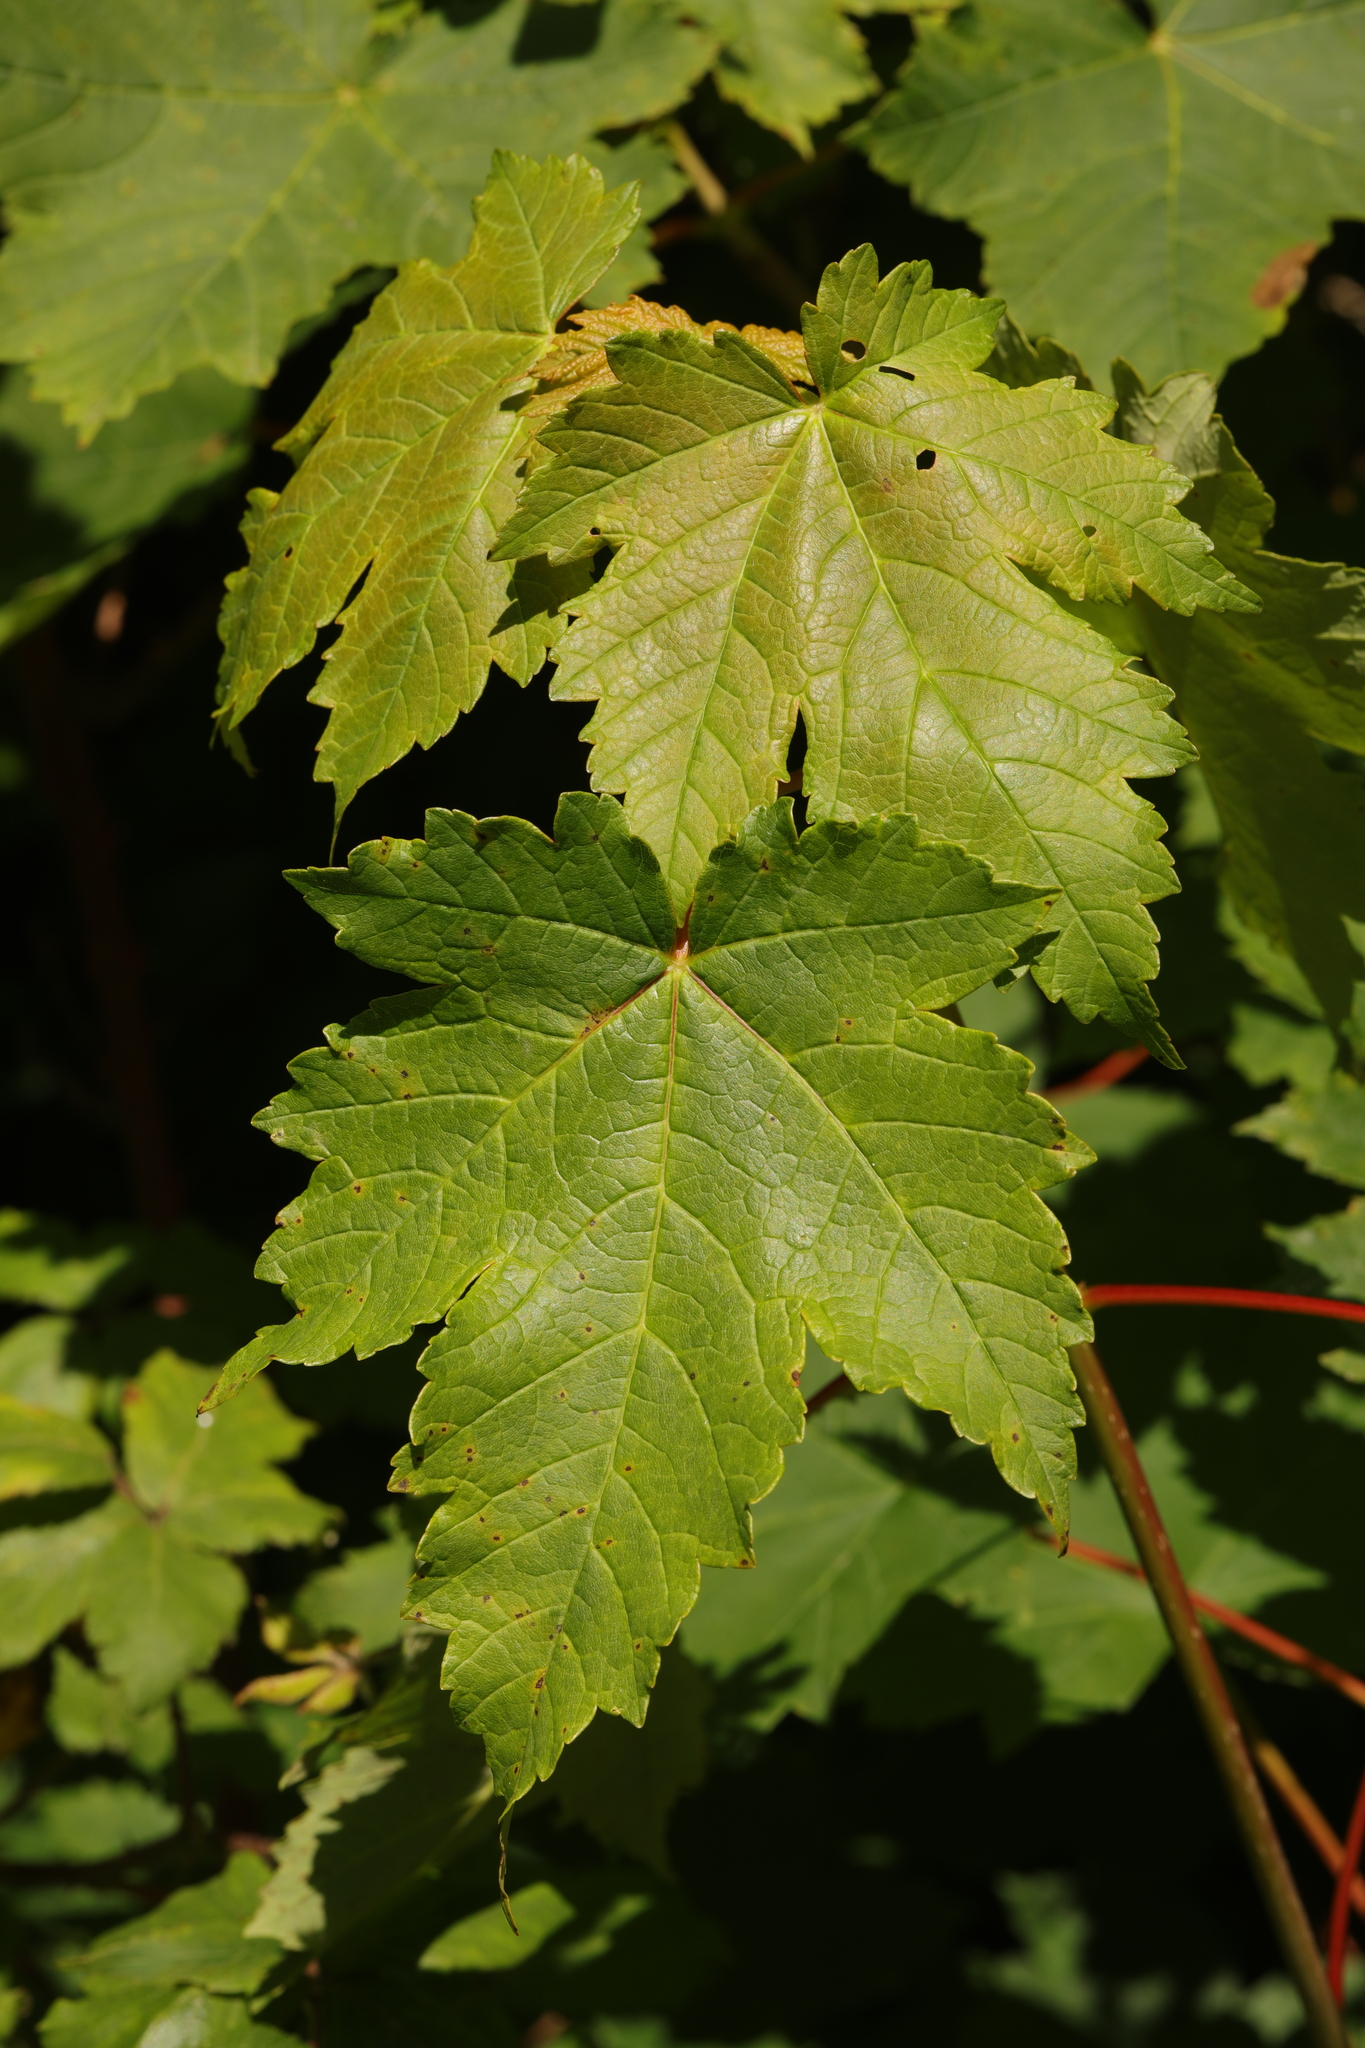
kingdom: Plantae
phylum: Tracheophyta
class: Magnoliopsida
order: Sapindales
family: Sapindaceae
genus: Acer
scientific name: Acer pseudoplatanus
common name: Sycamore
